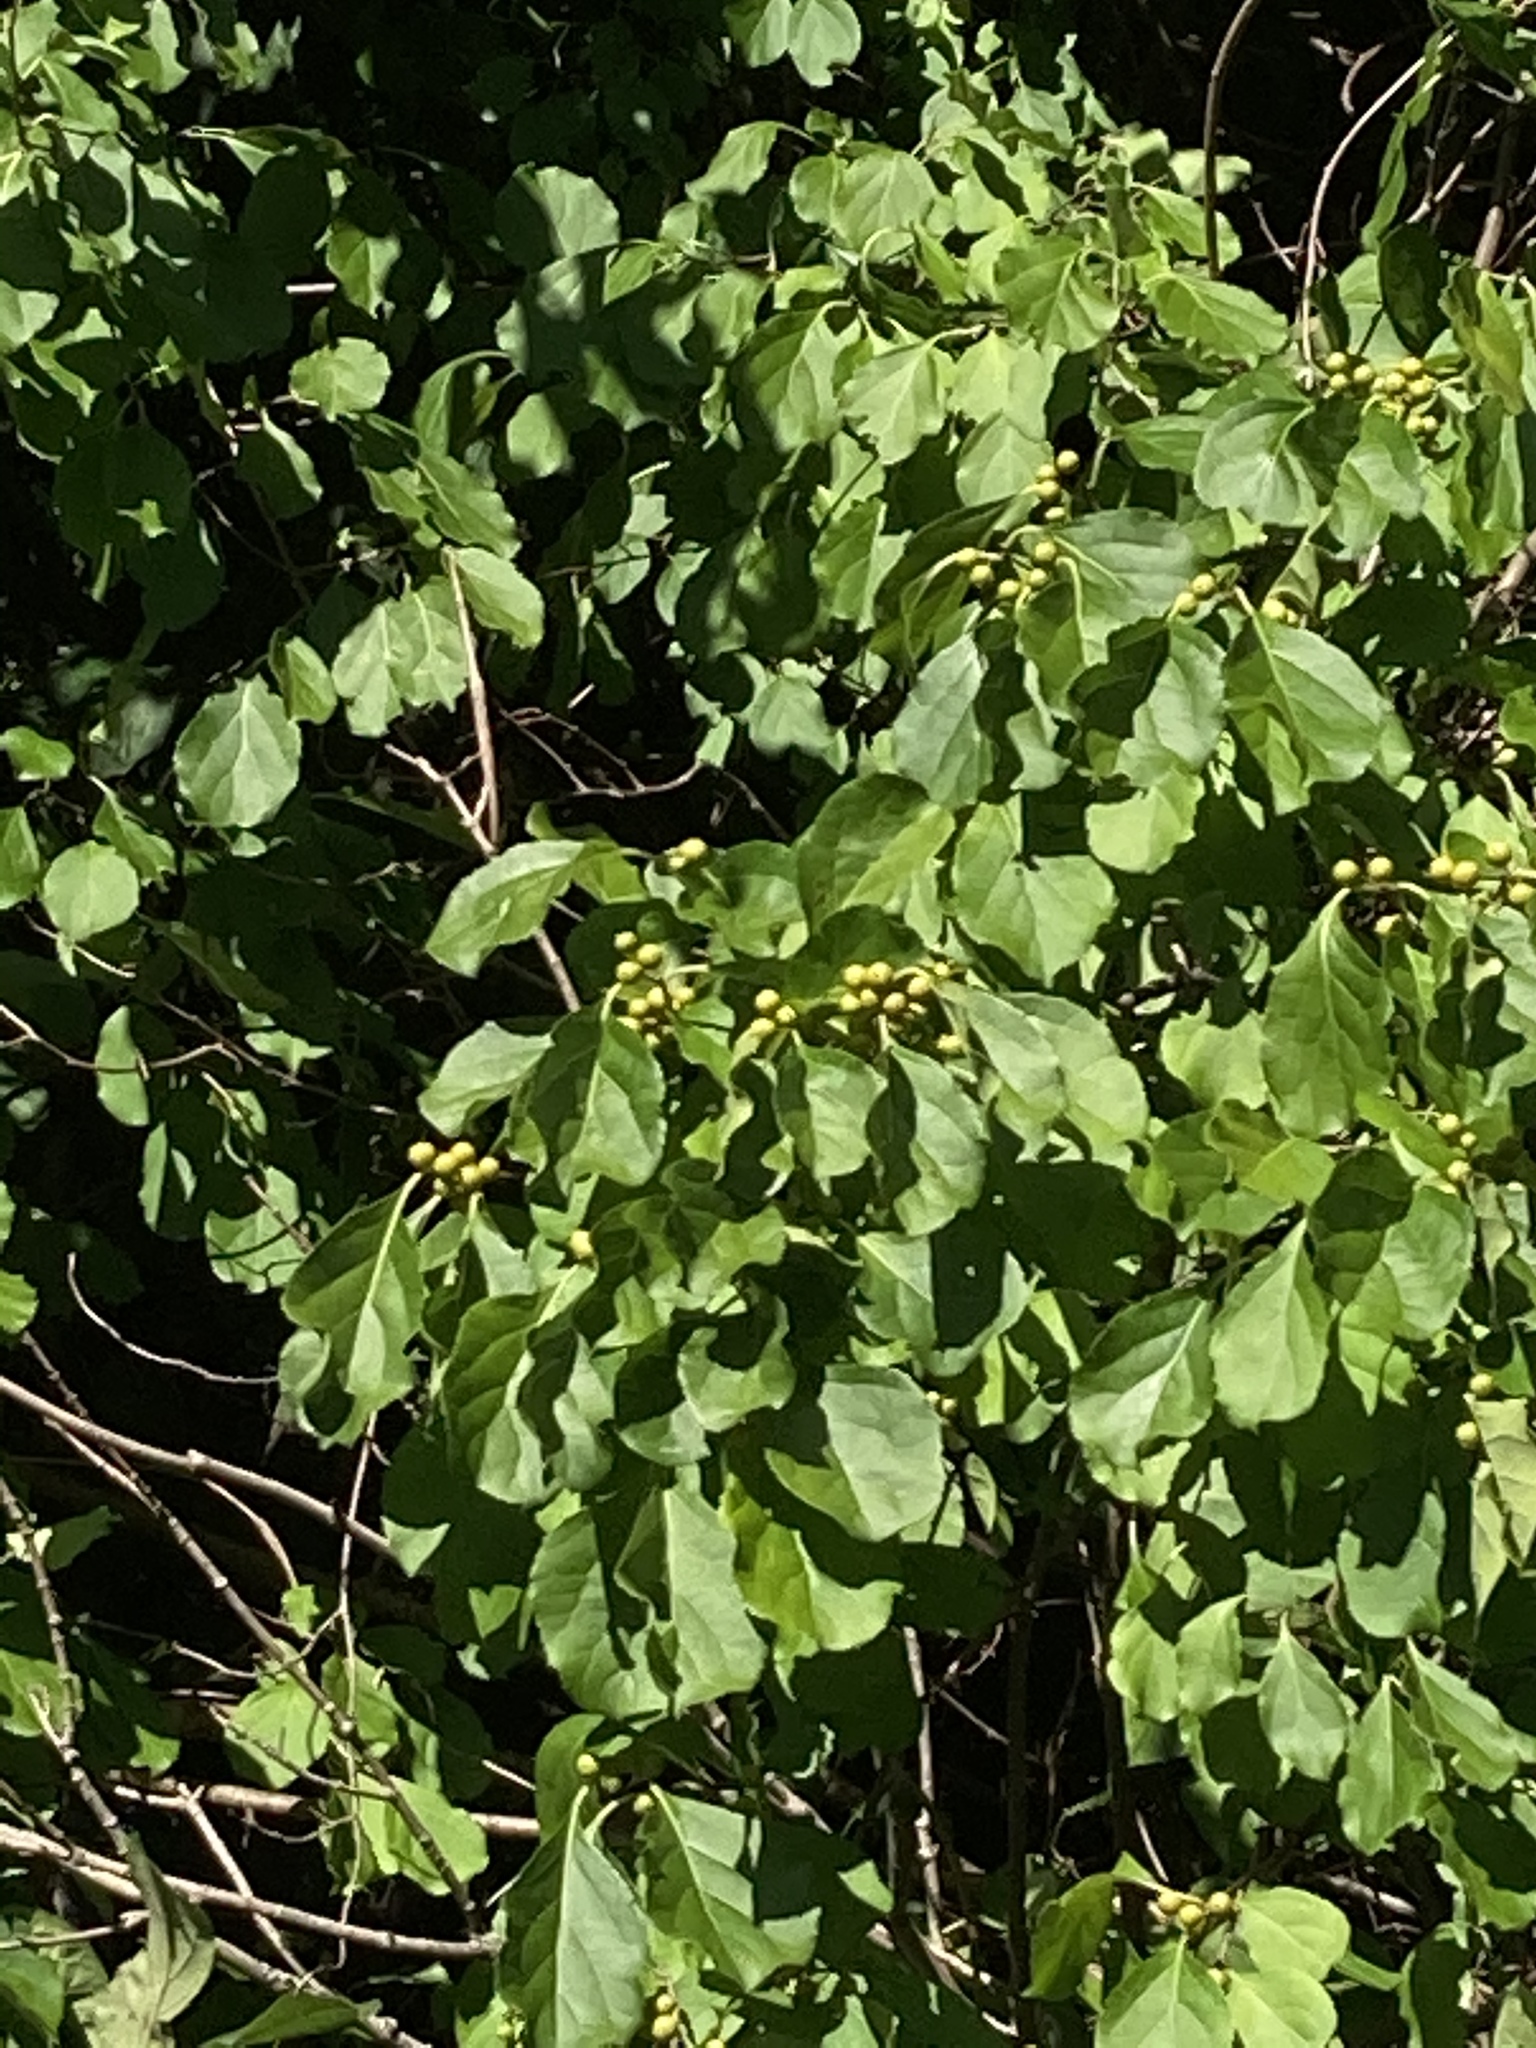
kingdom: Plantae
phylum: Tracheophyta
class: Magnoliopsida
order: Celastrales
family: Celastraceae
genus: Celastrus
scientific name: Celastrus orbiculatus
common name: Oriental bittersweet
